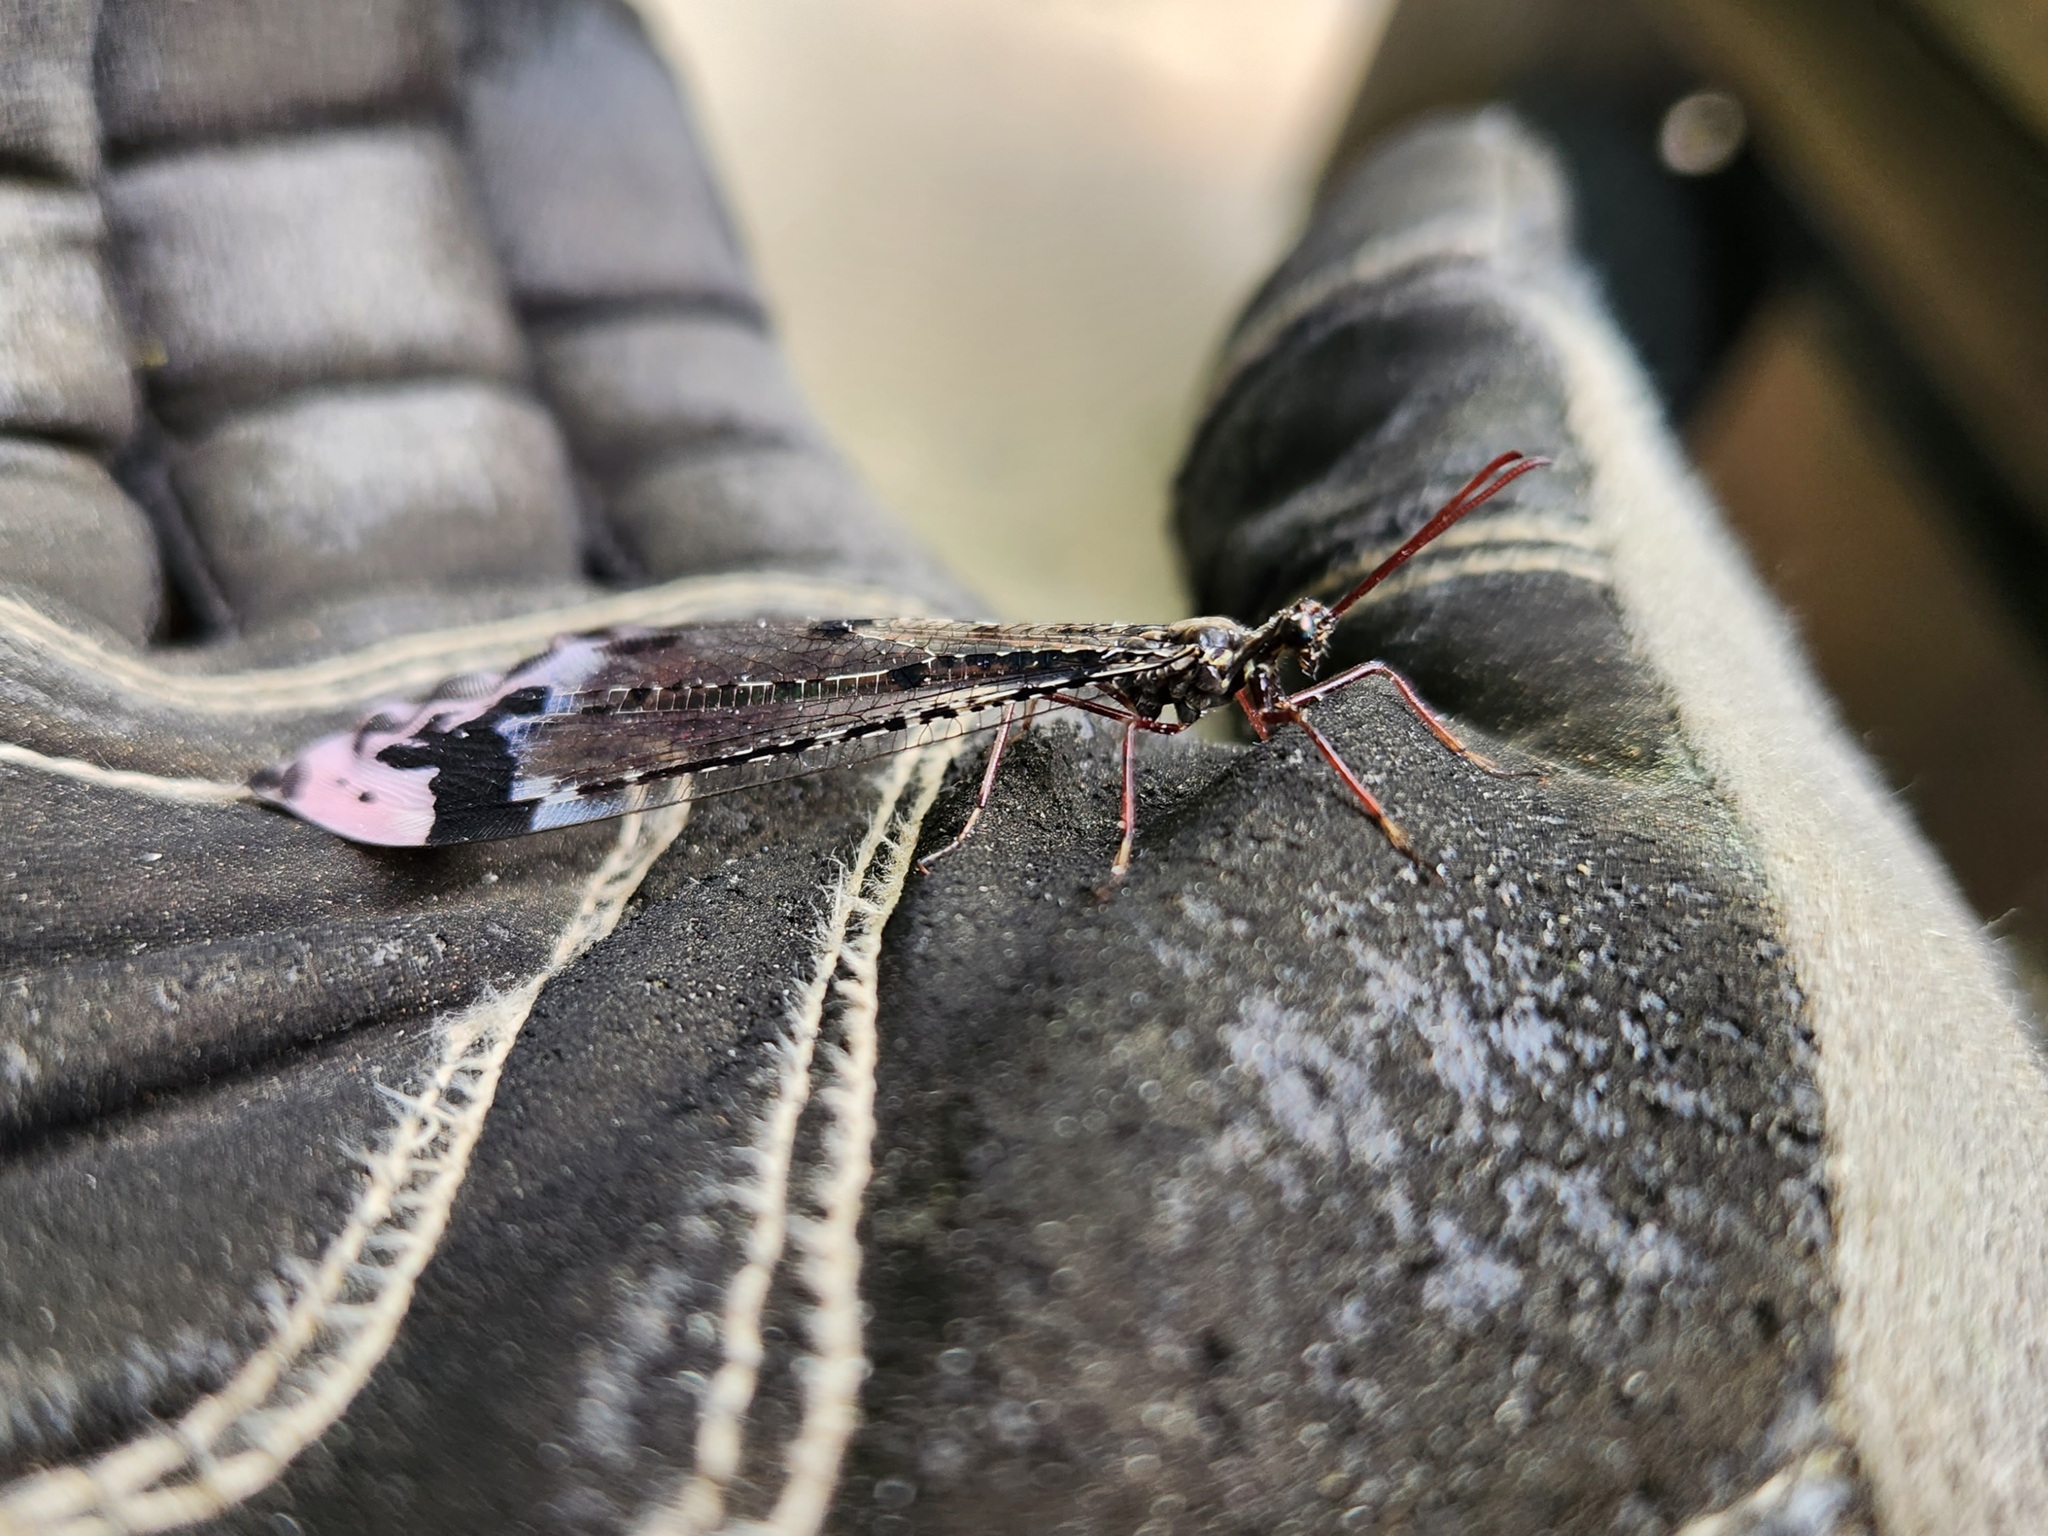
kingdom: Animalia
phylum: Arthropoda
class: Insecta
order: Neuroptera
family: Myrmeleontidae
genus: Glenurus
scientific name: Glenurus gratus
